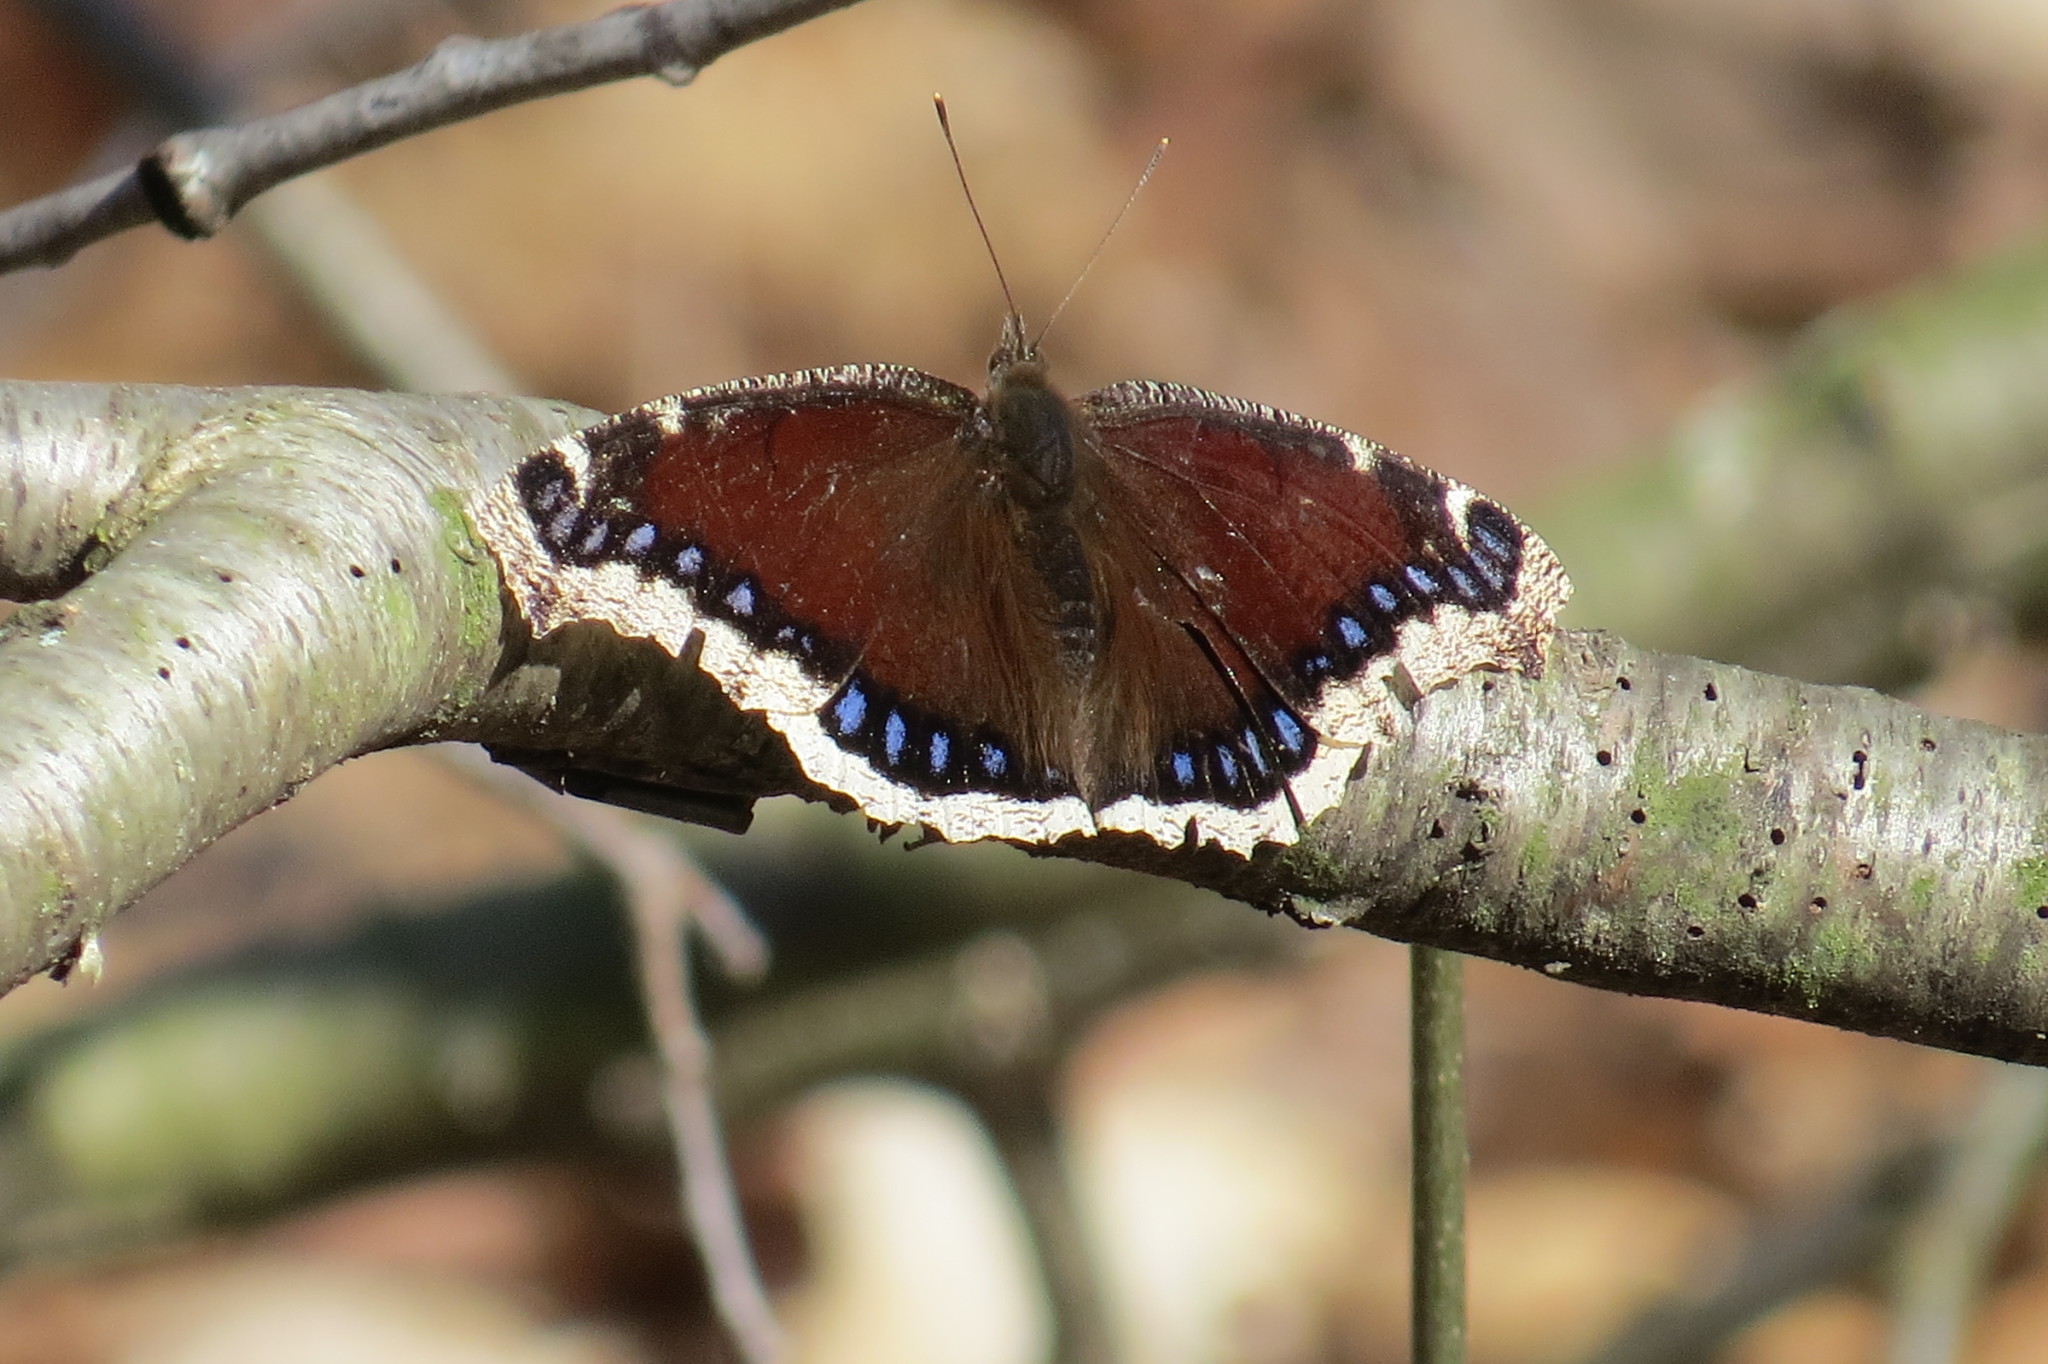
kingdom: Animalia
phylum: Arthropoda
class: Insecta
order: Lepidoptera
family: Nymphalidae
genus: Nymphalis
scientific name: Nymphalis antiopa
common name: Camberwell beauty
